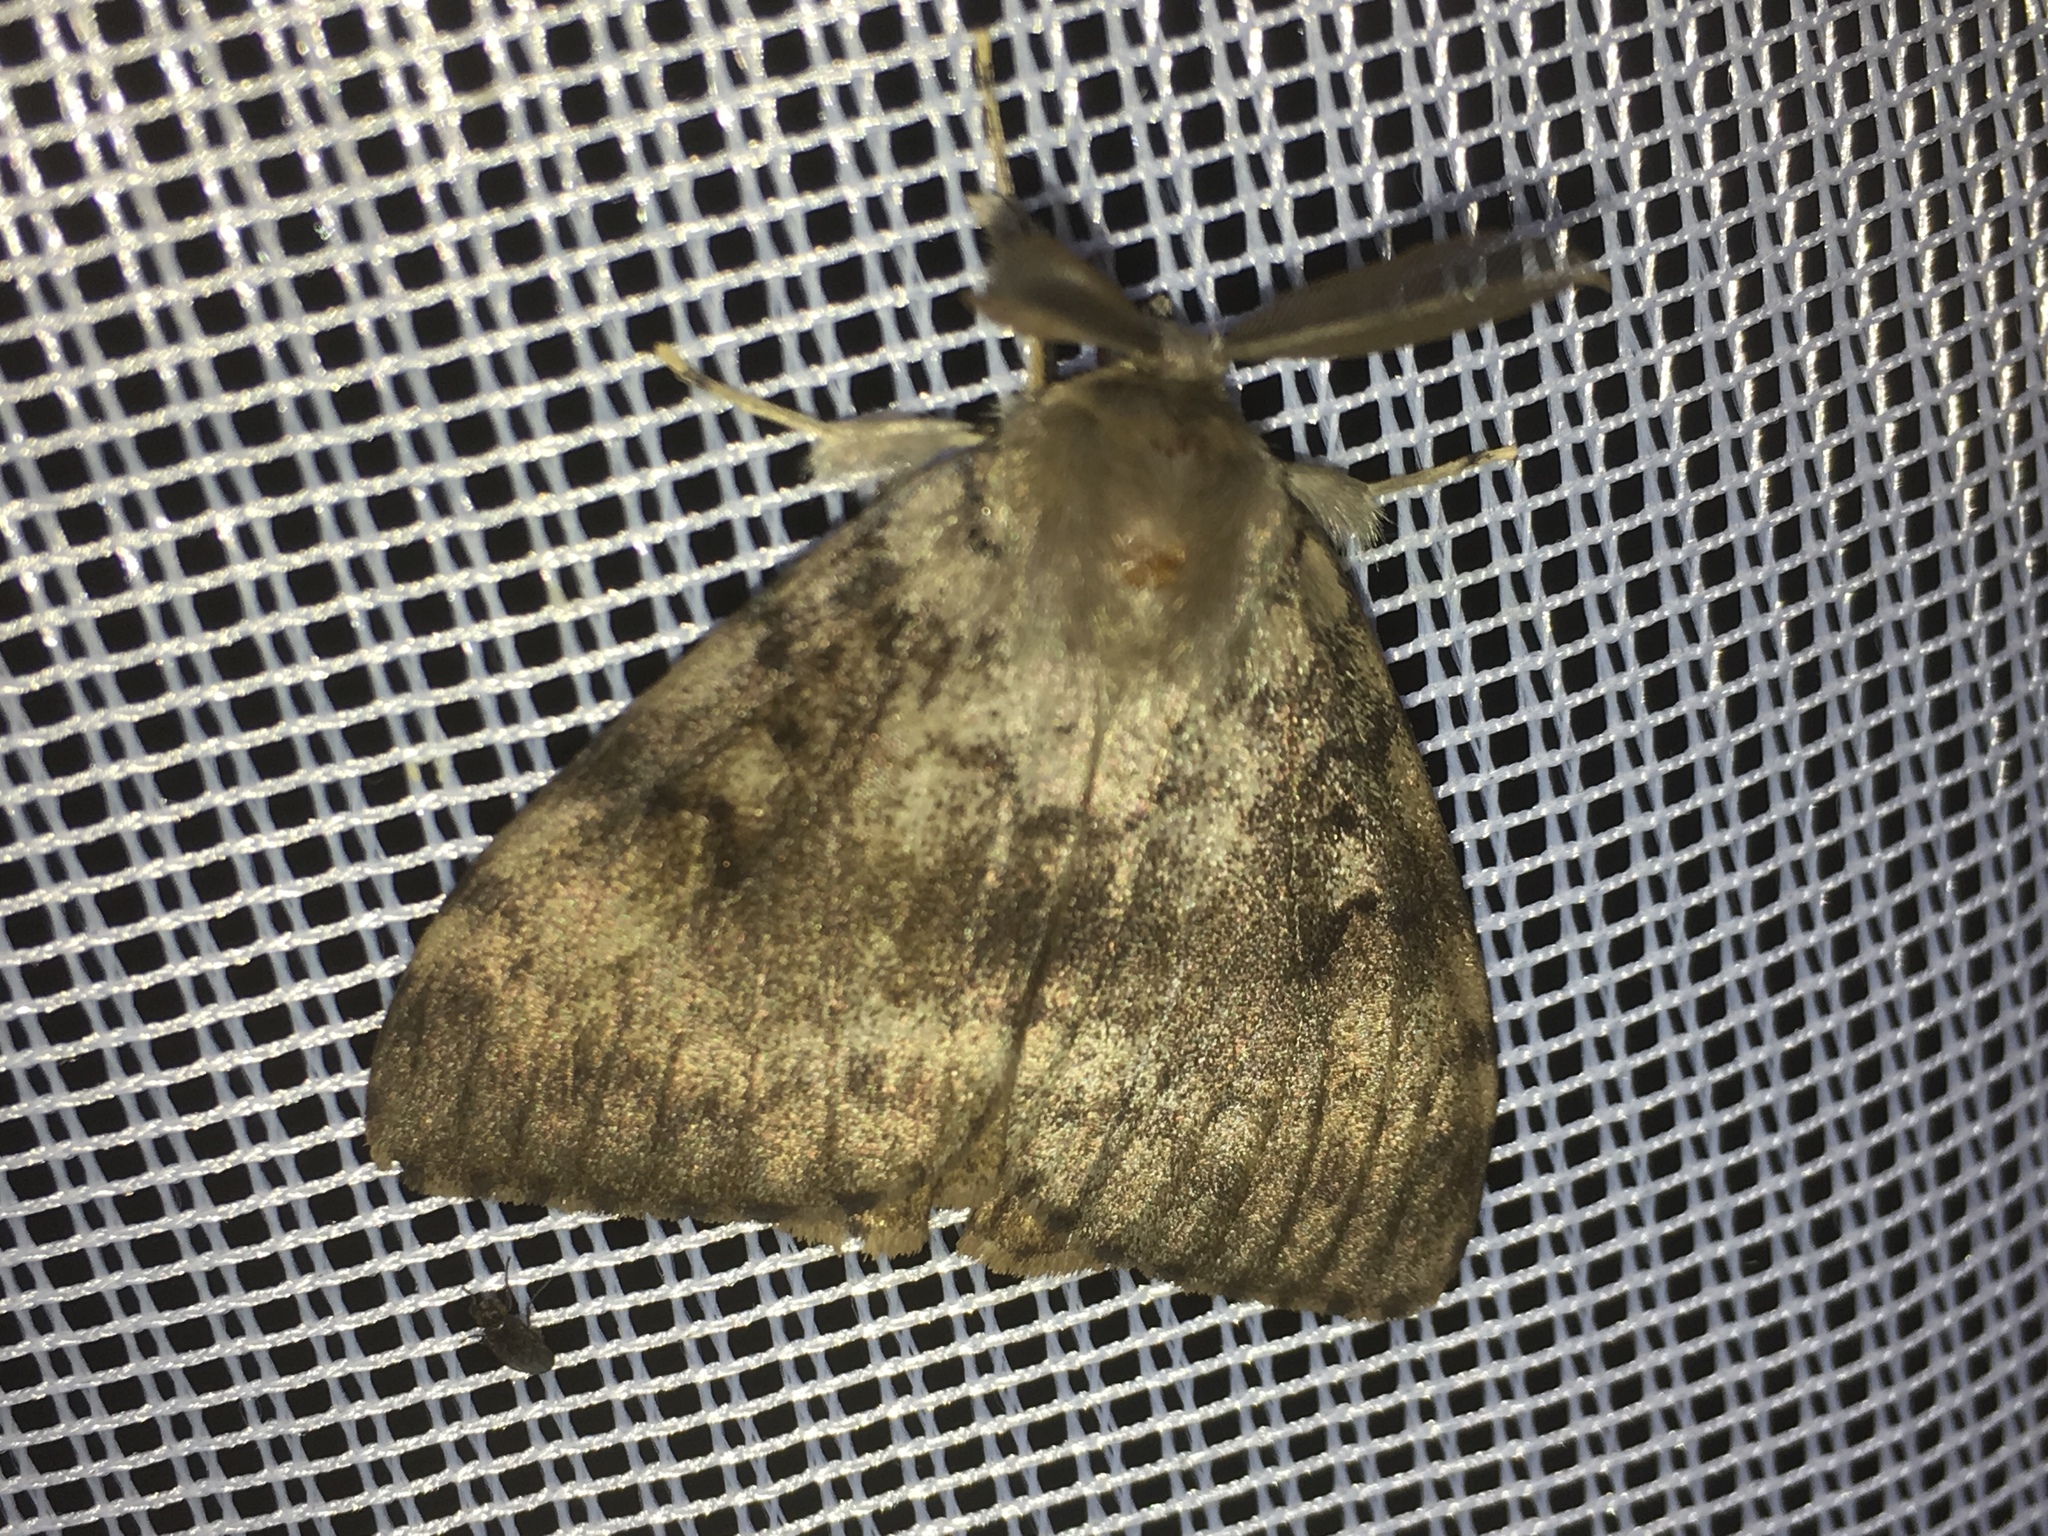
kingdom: Animalia
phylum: Arthropoda
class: Insecta
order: Lepidoptera
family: Erebidae
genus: Lymantria
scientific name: Lymantria dispar
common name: Gypsy moth
